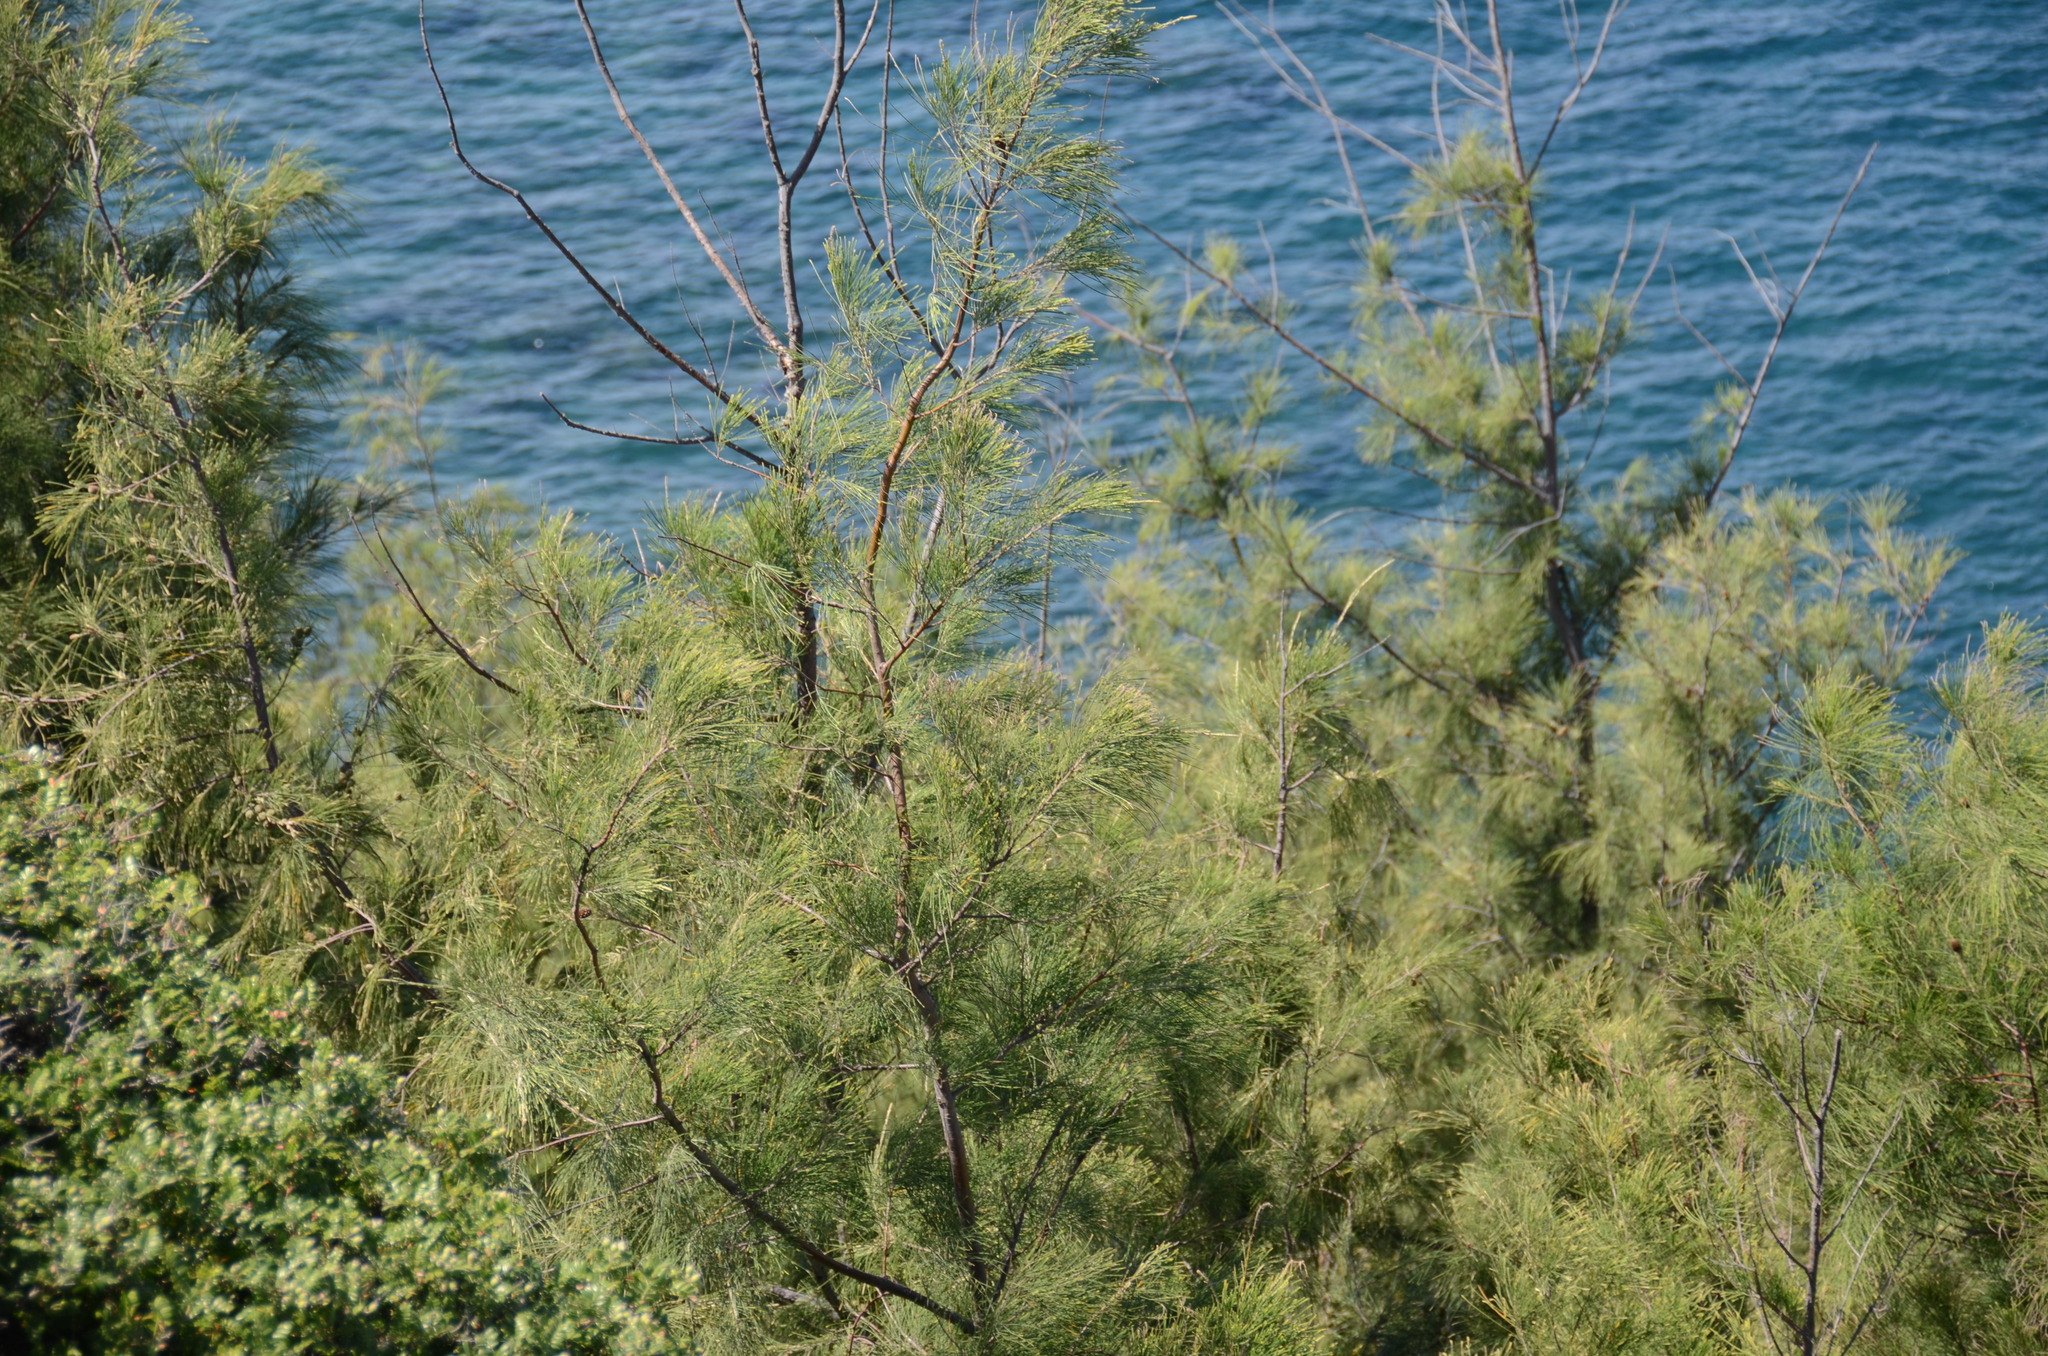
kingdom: Plantae
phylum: Tracheophyta
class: Magnoliopsida
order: Fagales
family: Casuarinaceae
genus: Casuarina
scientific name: Casuarina equisetifolia
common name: Beach sheoak
